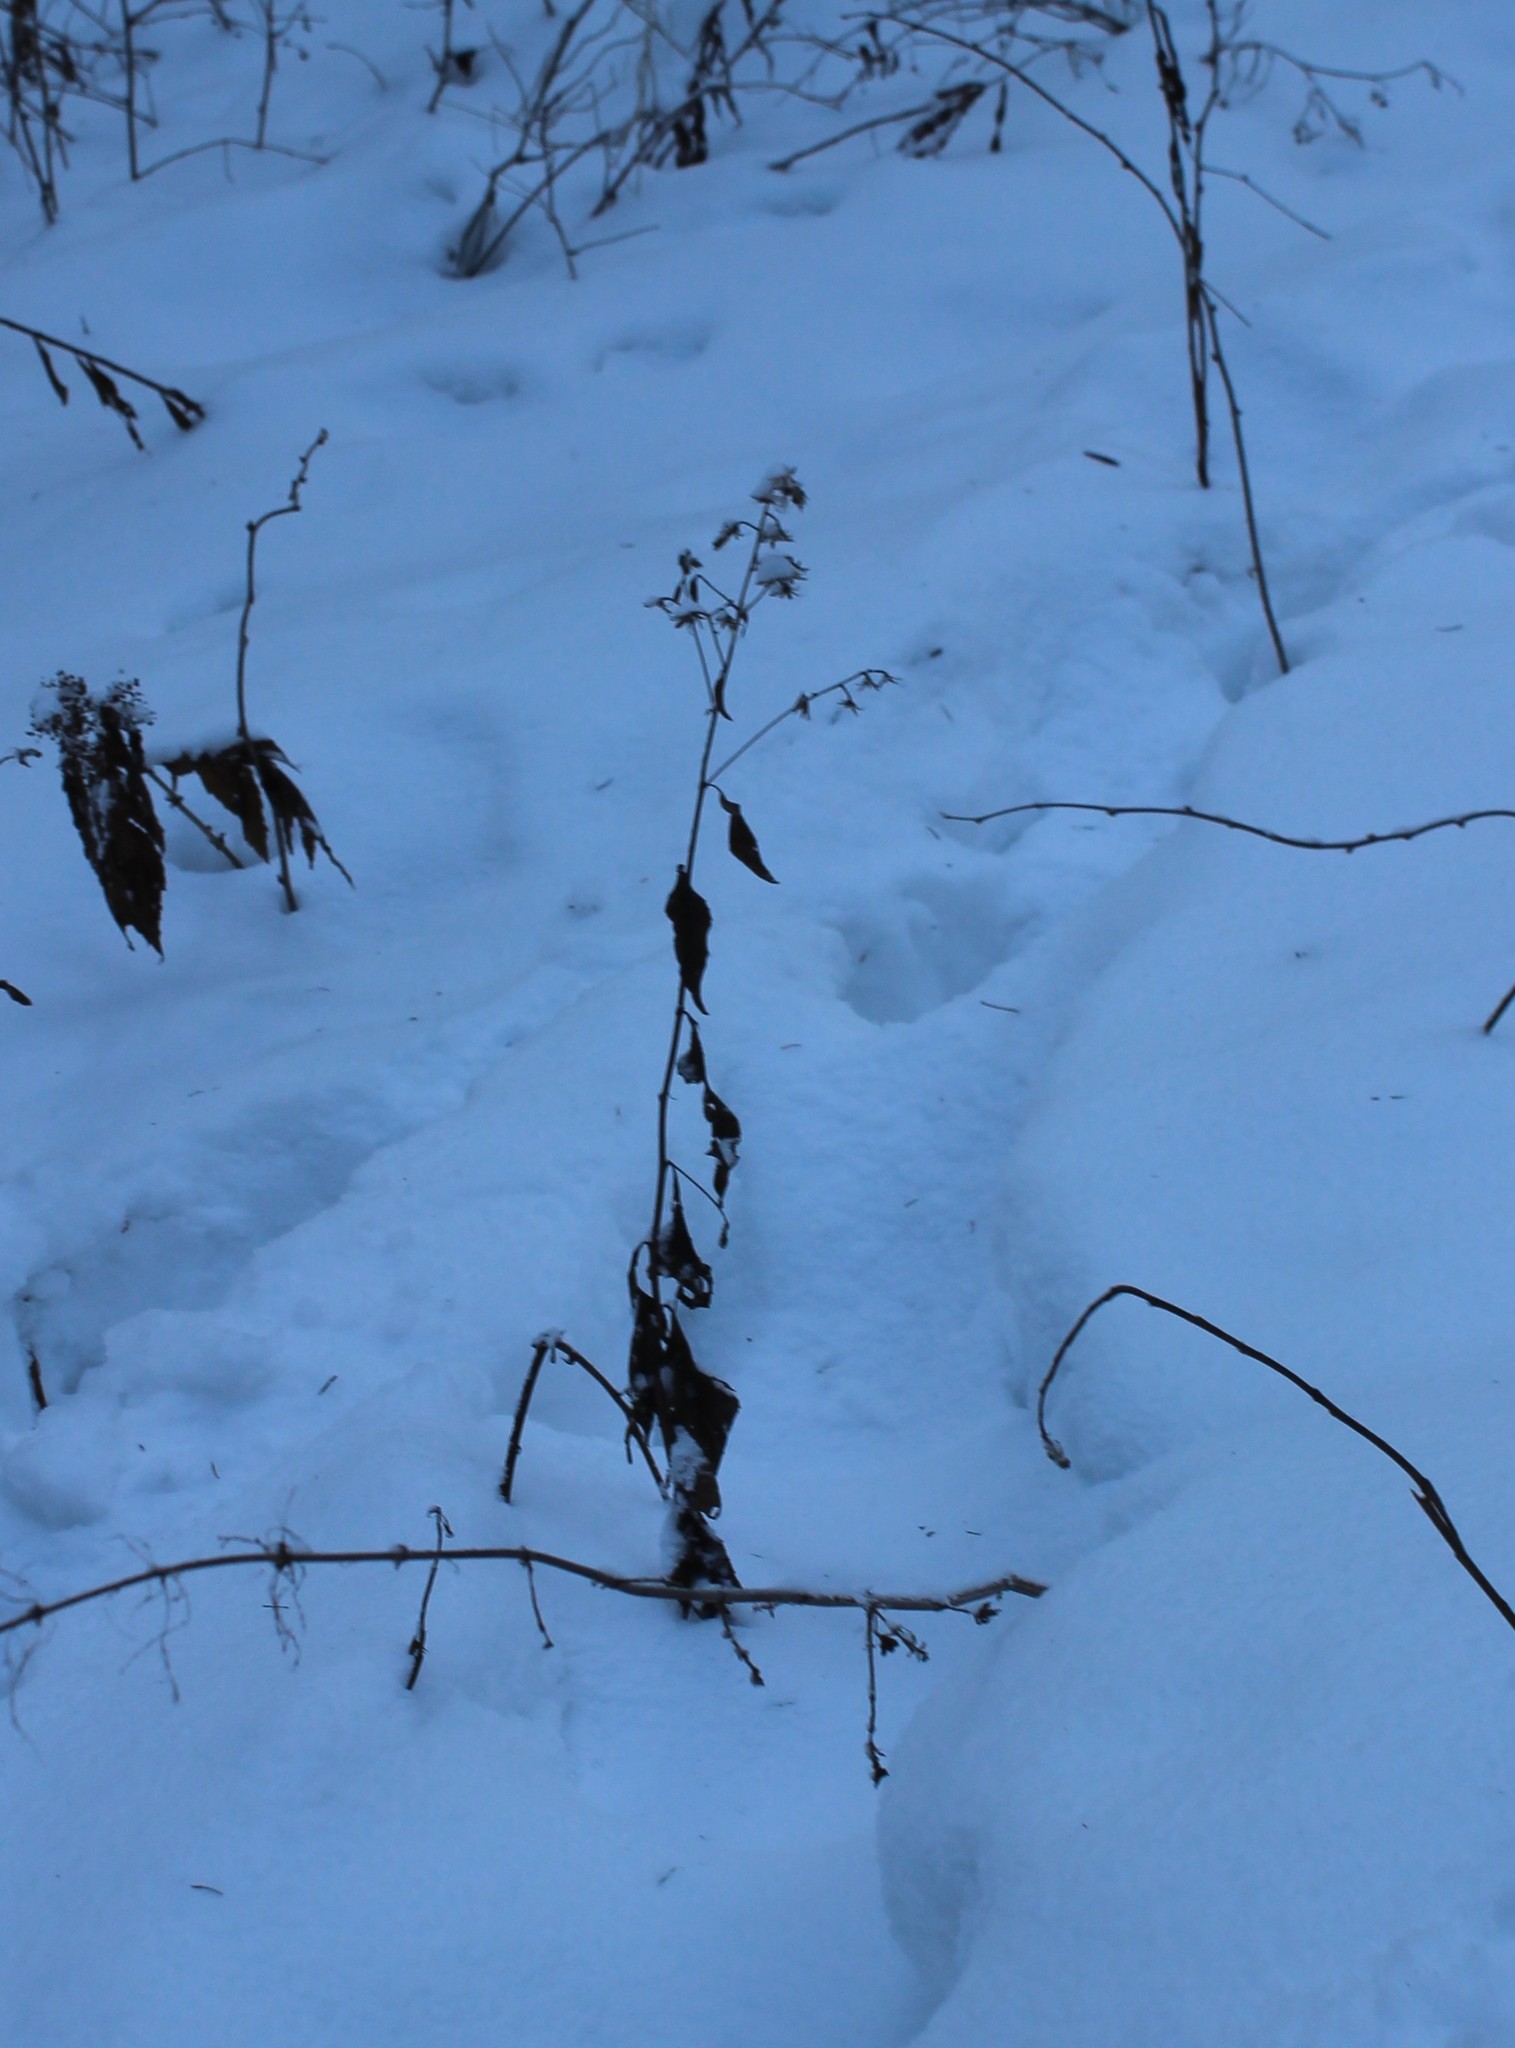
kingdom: Plantae
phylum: Tracheophyta
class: Magnoliopsida
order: Asterales
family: Asteraceae
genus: Parasenecio
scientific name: Parasenecio hastatus
